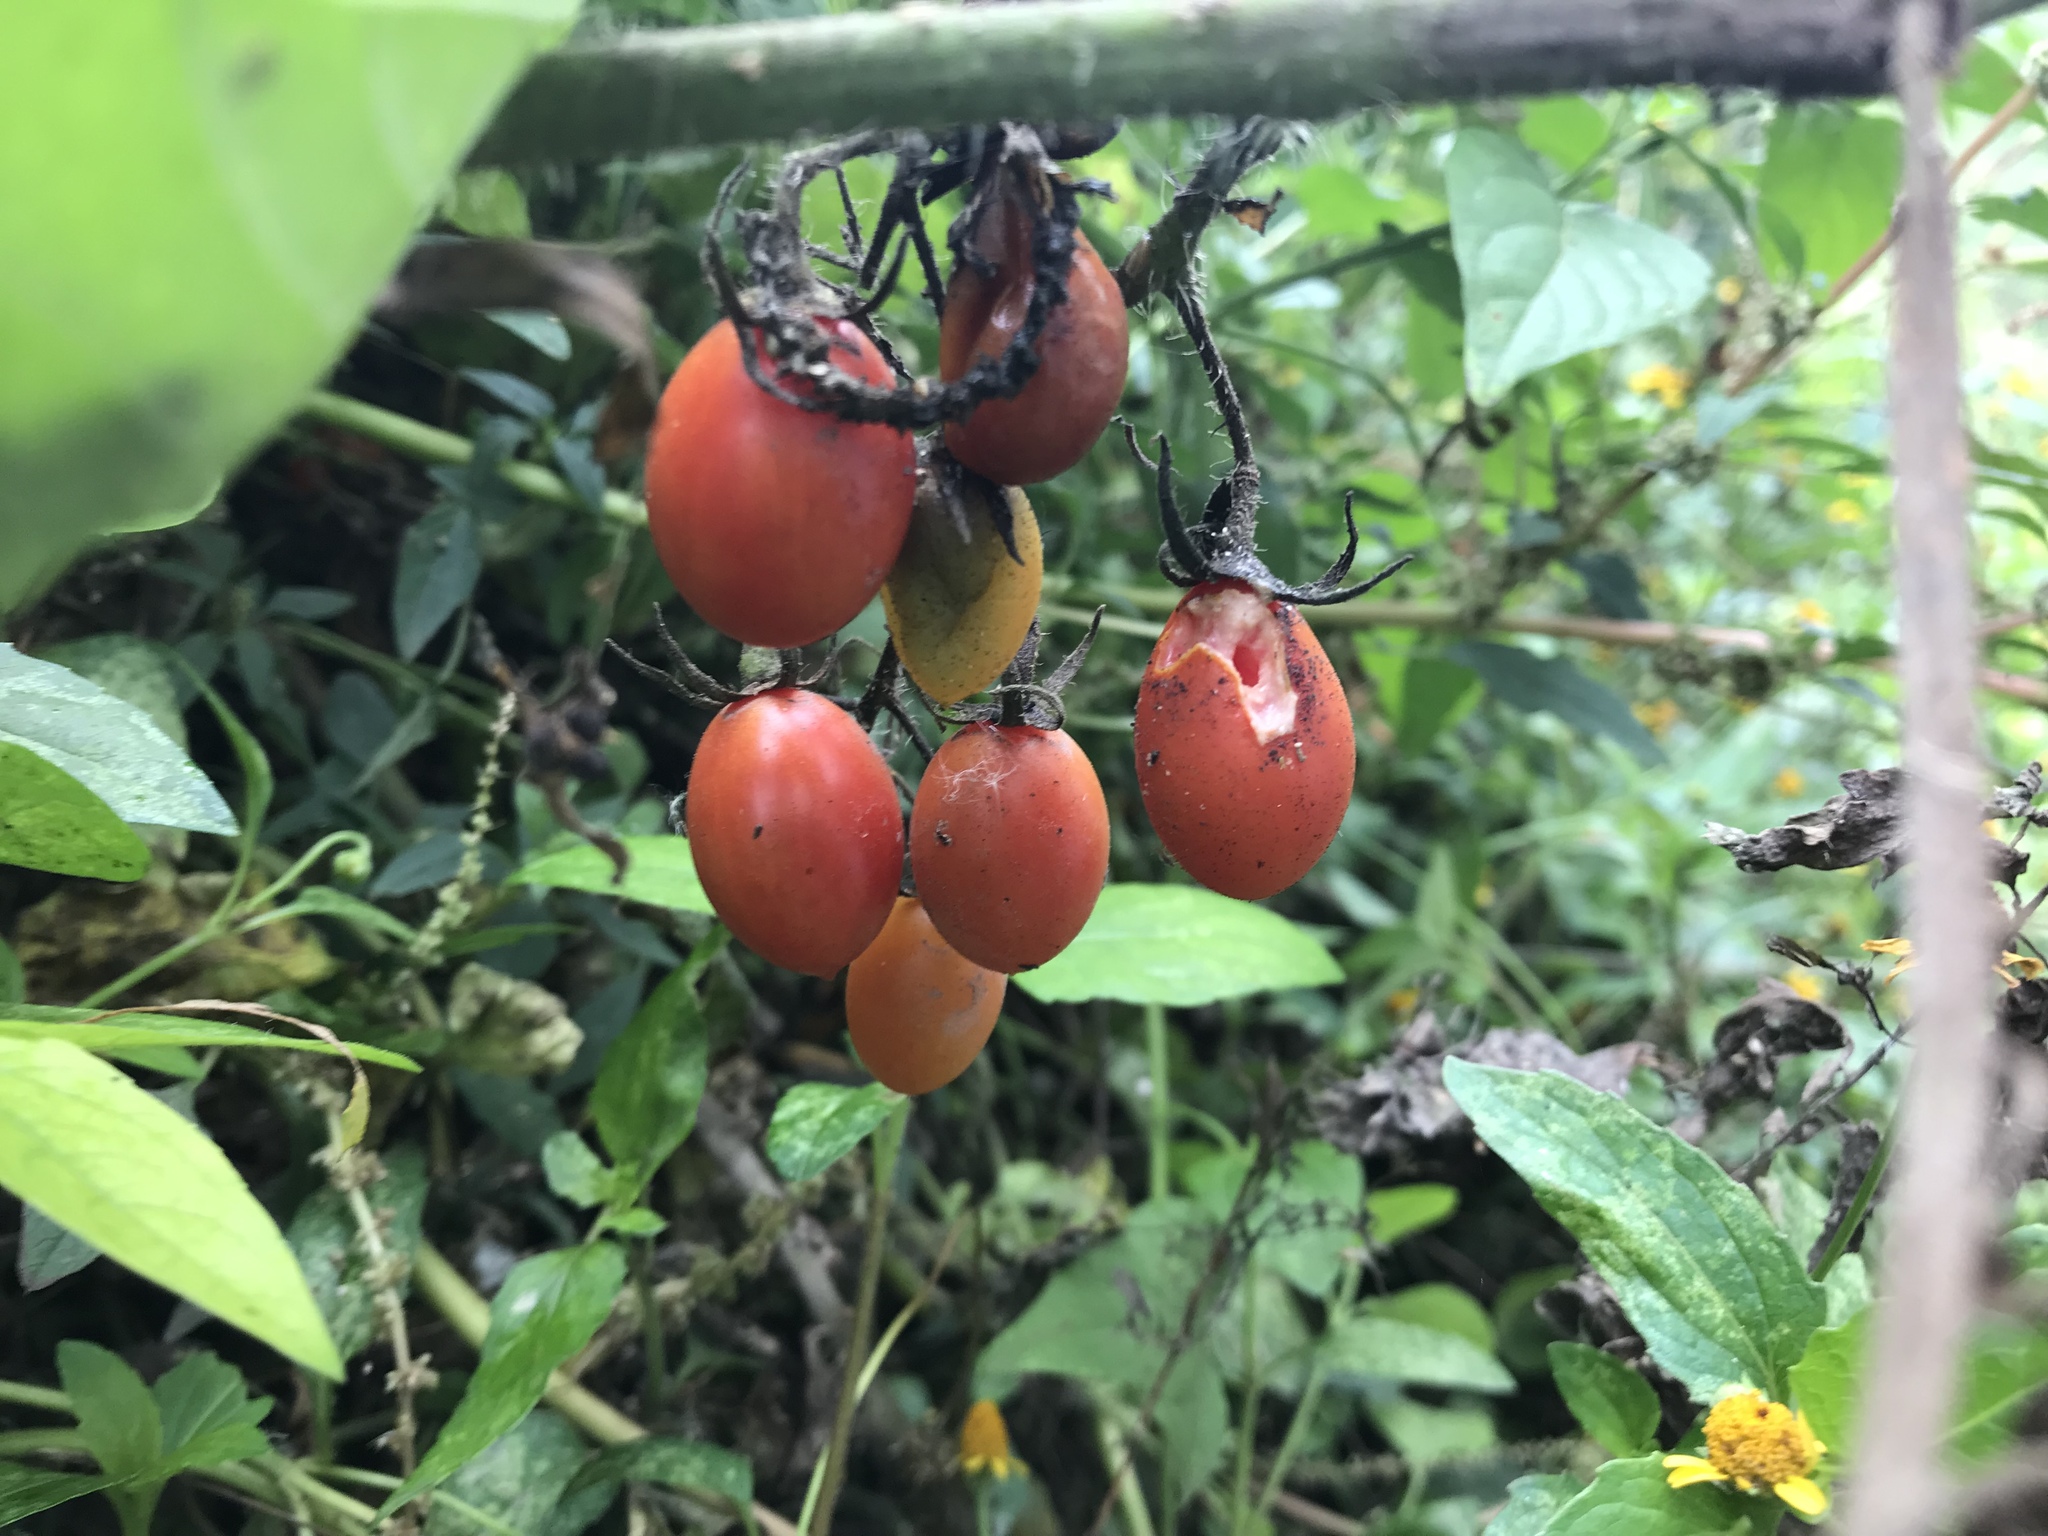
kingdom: Plantae
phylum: Tracheophyta
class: Magnoliopsida
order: Solanales
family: Solanaceae
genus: Solanum
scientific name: Solanum lycopersicum
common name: Garden tomato
